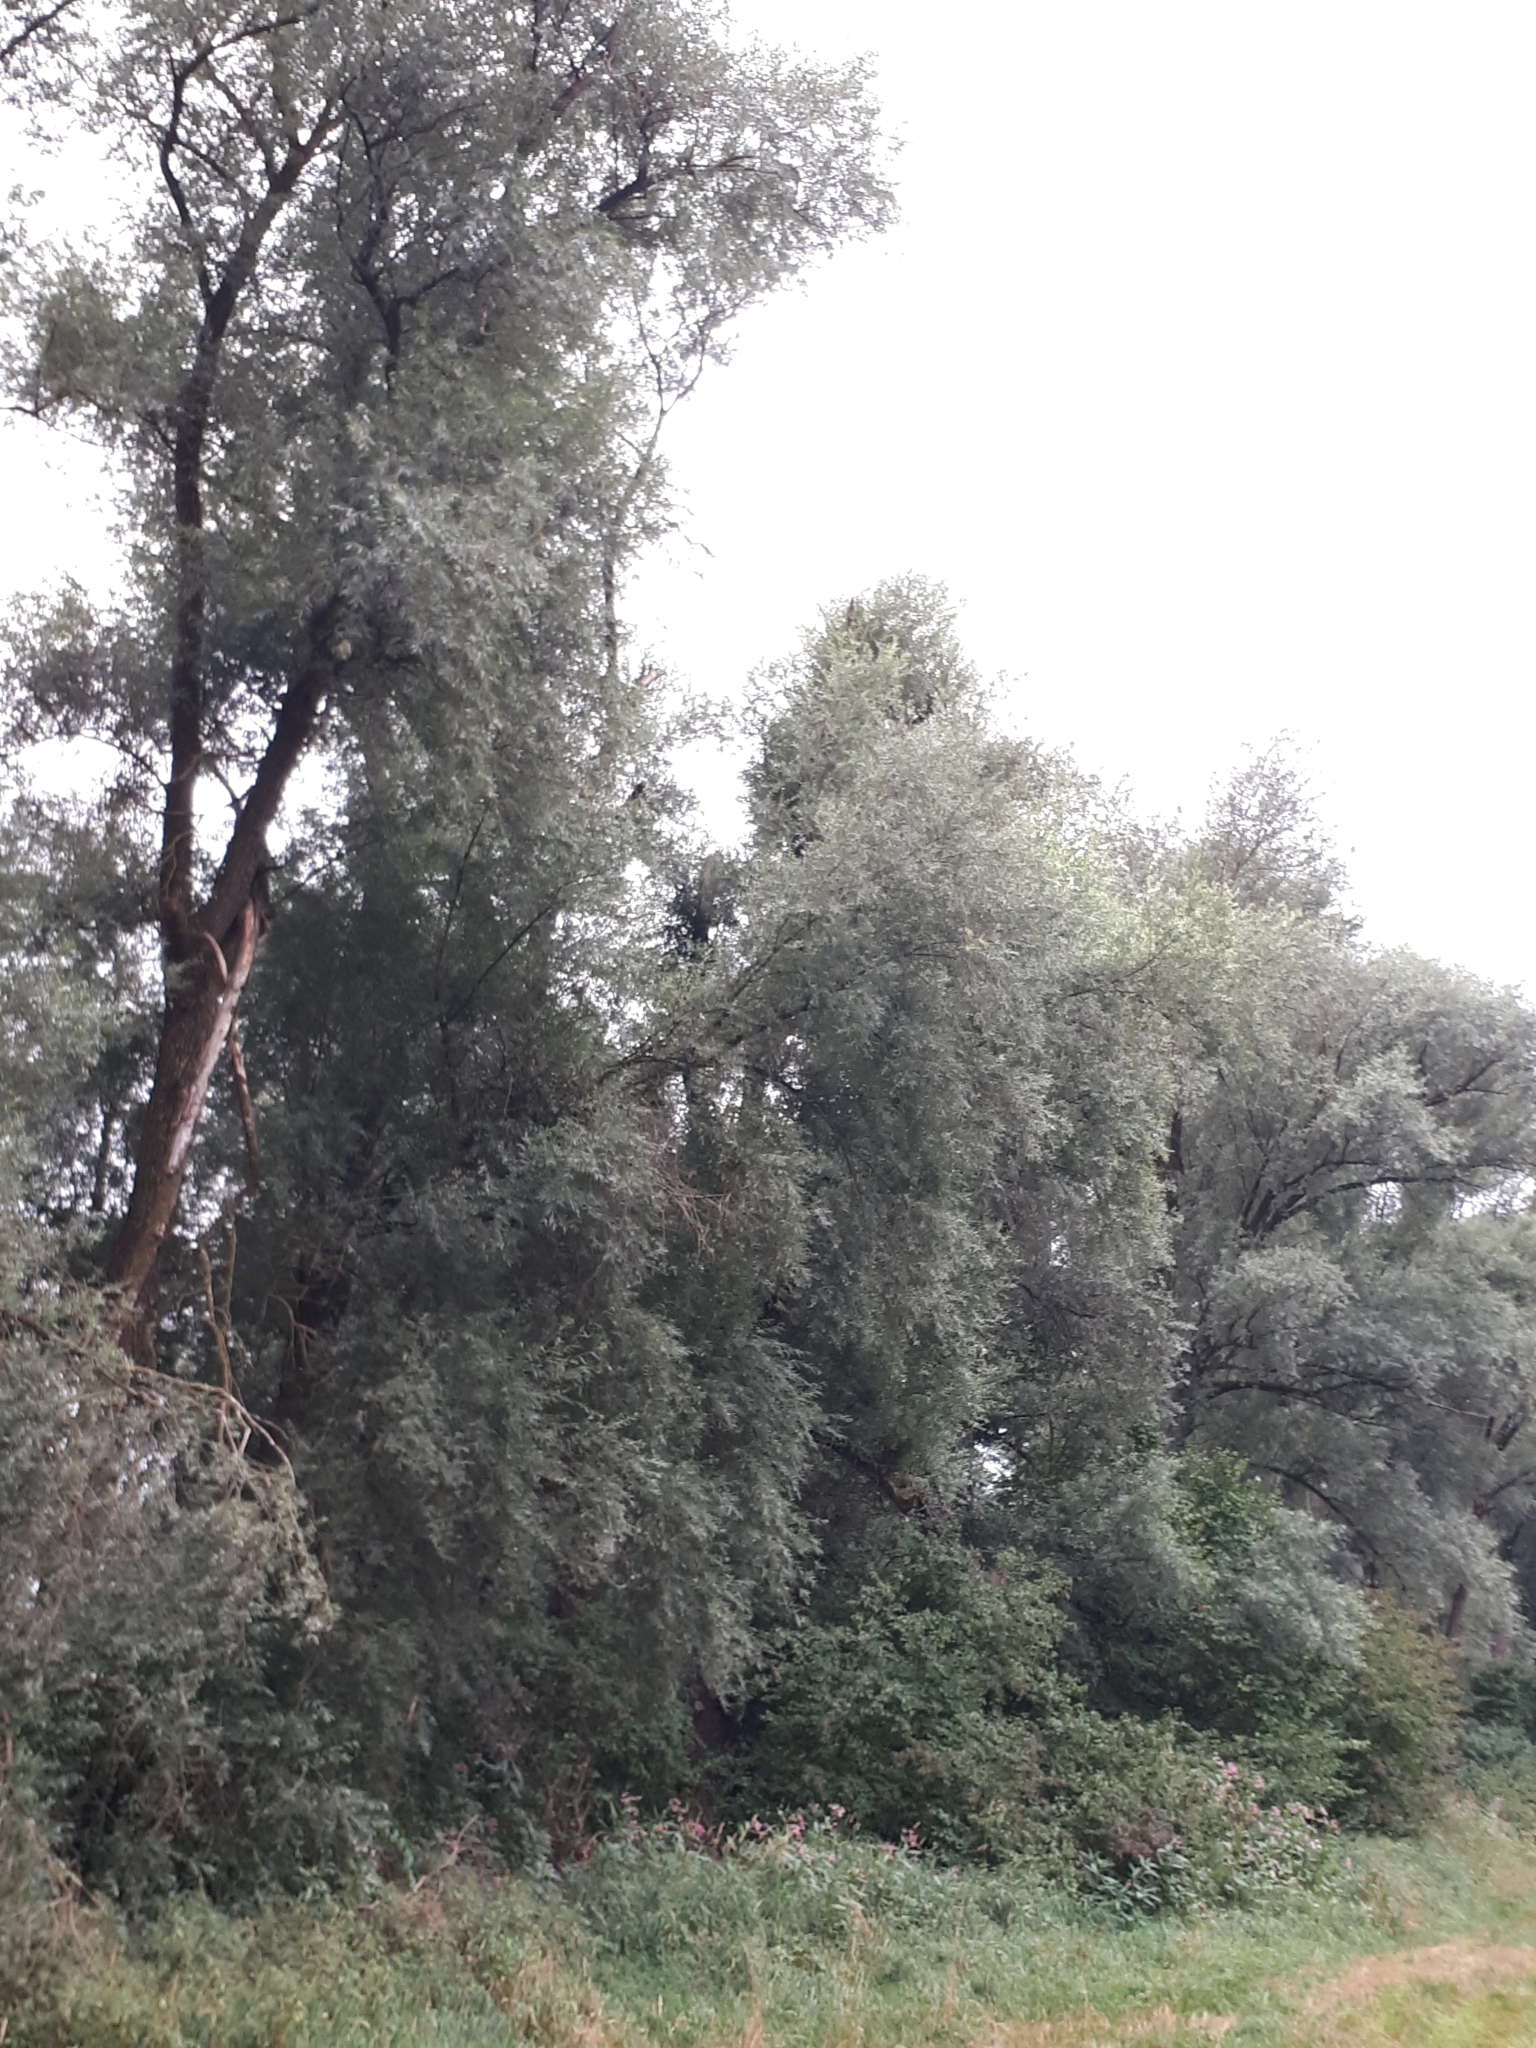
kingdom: Plantae
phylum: Tracheophyta
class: Magnoliopsida
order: Malpighiales
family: Salicaceae
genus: Salix
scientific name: Salix alba
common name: White willow
